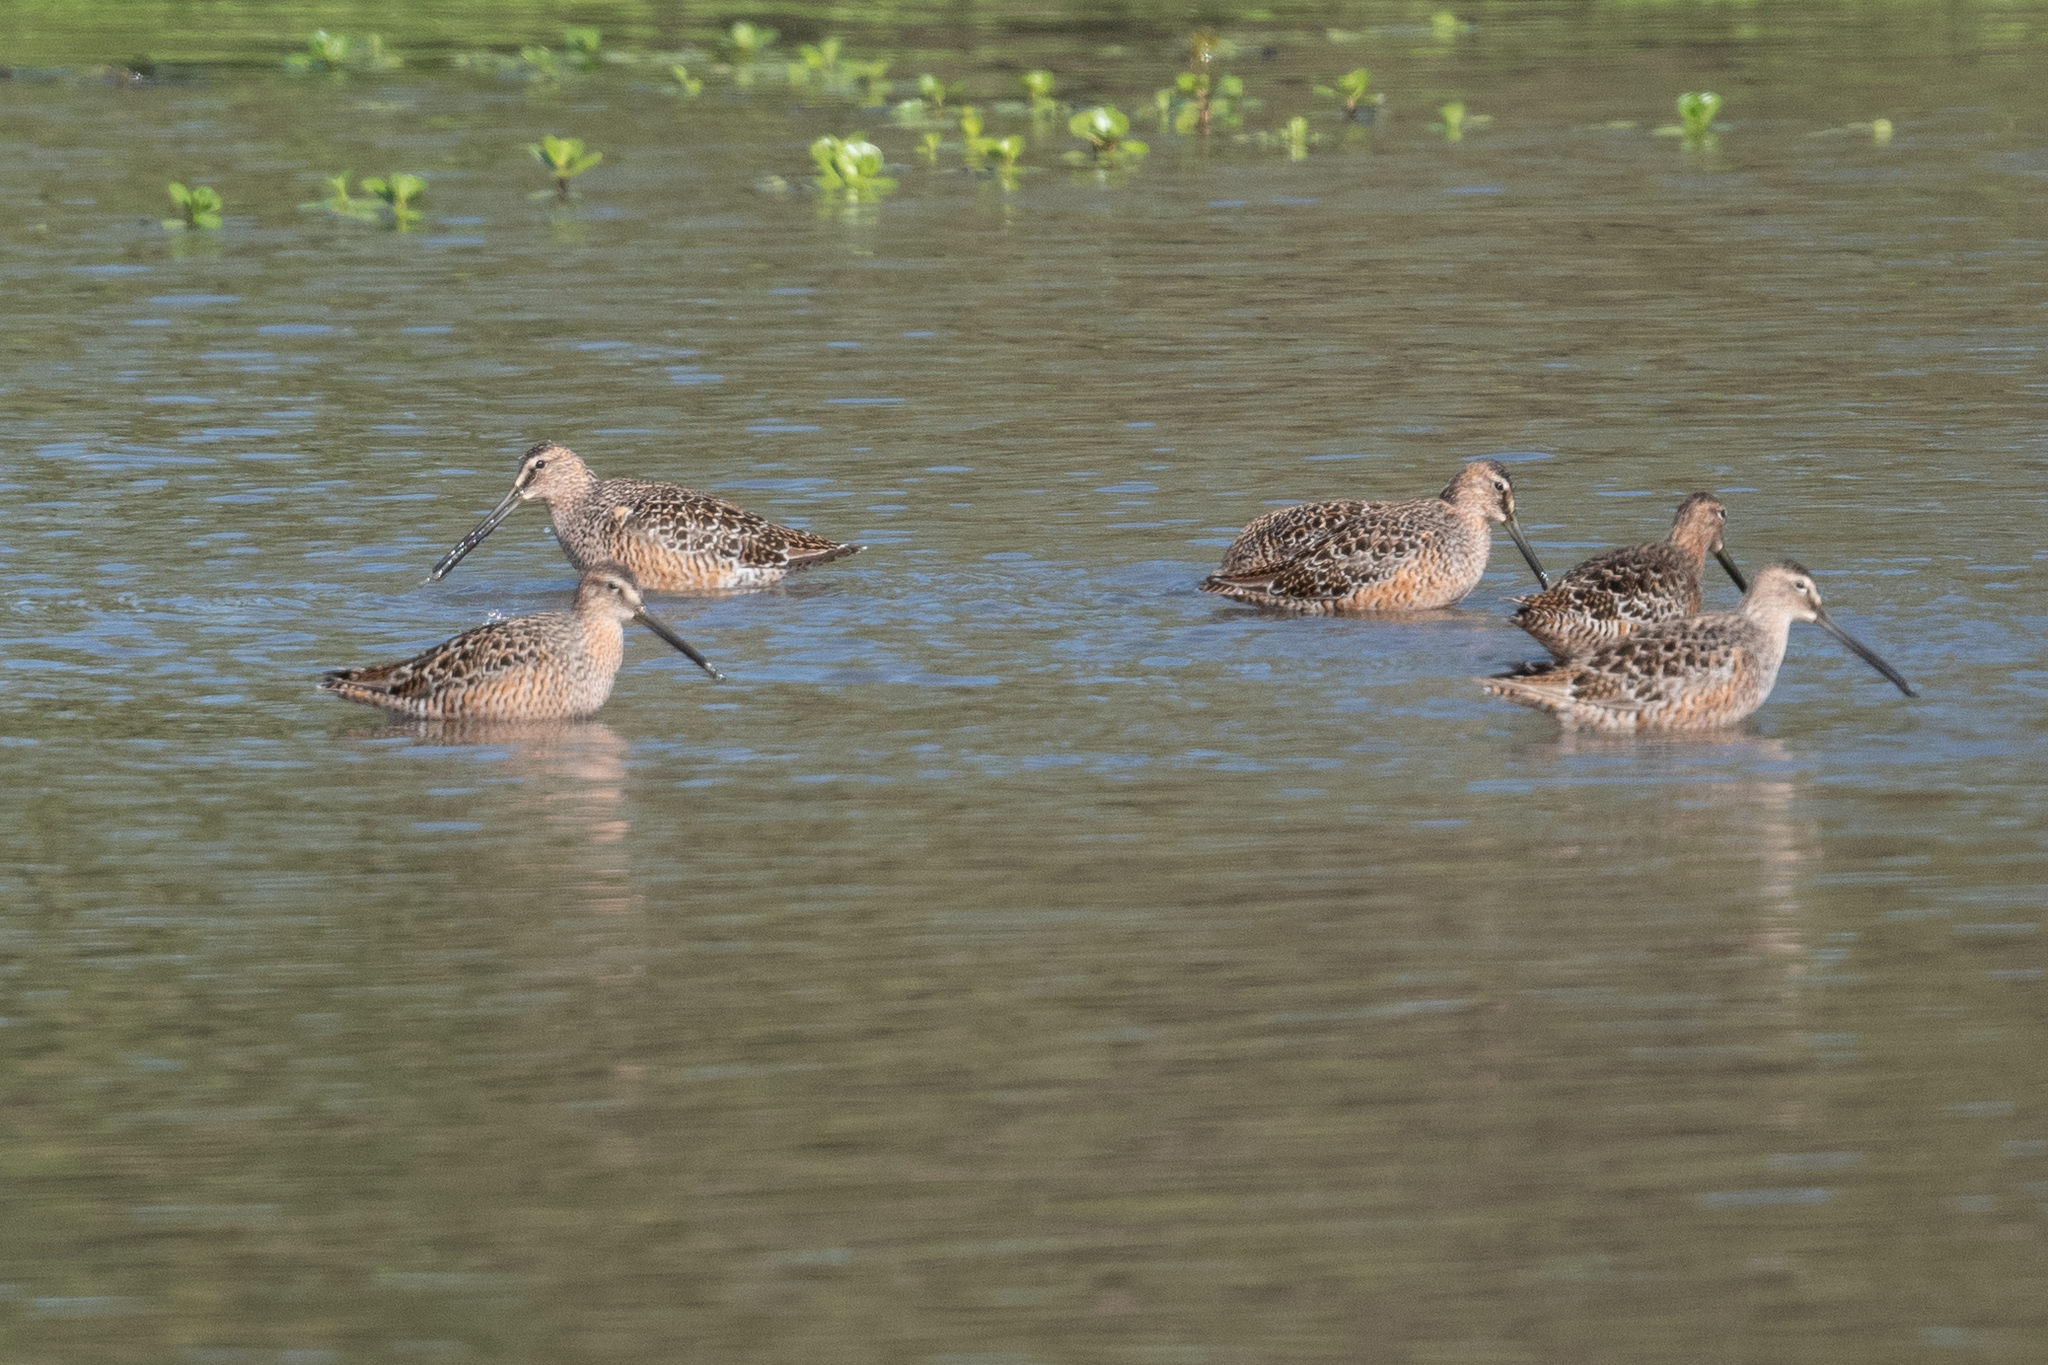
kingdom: Animalia
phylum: Chordata
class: Aves
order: Charadriiformes
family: Scolopacidae
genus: Limnodromus
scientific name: Limnodromus scolopaceus
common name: Long-billed dowitcher
